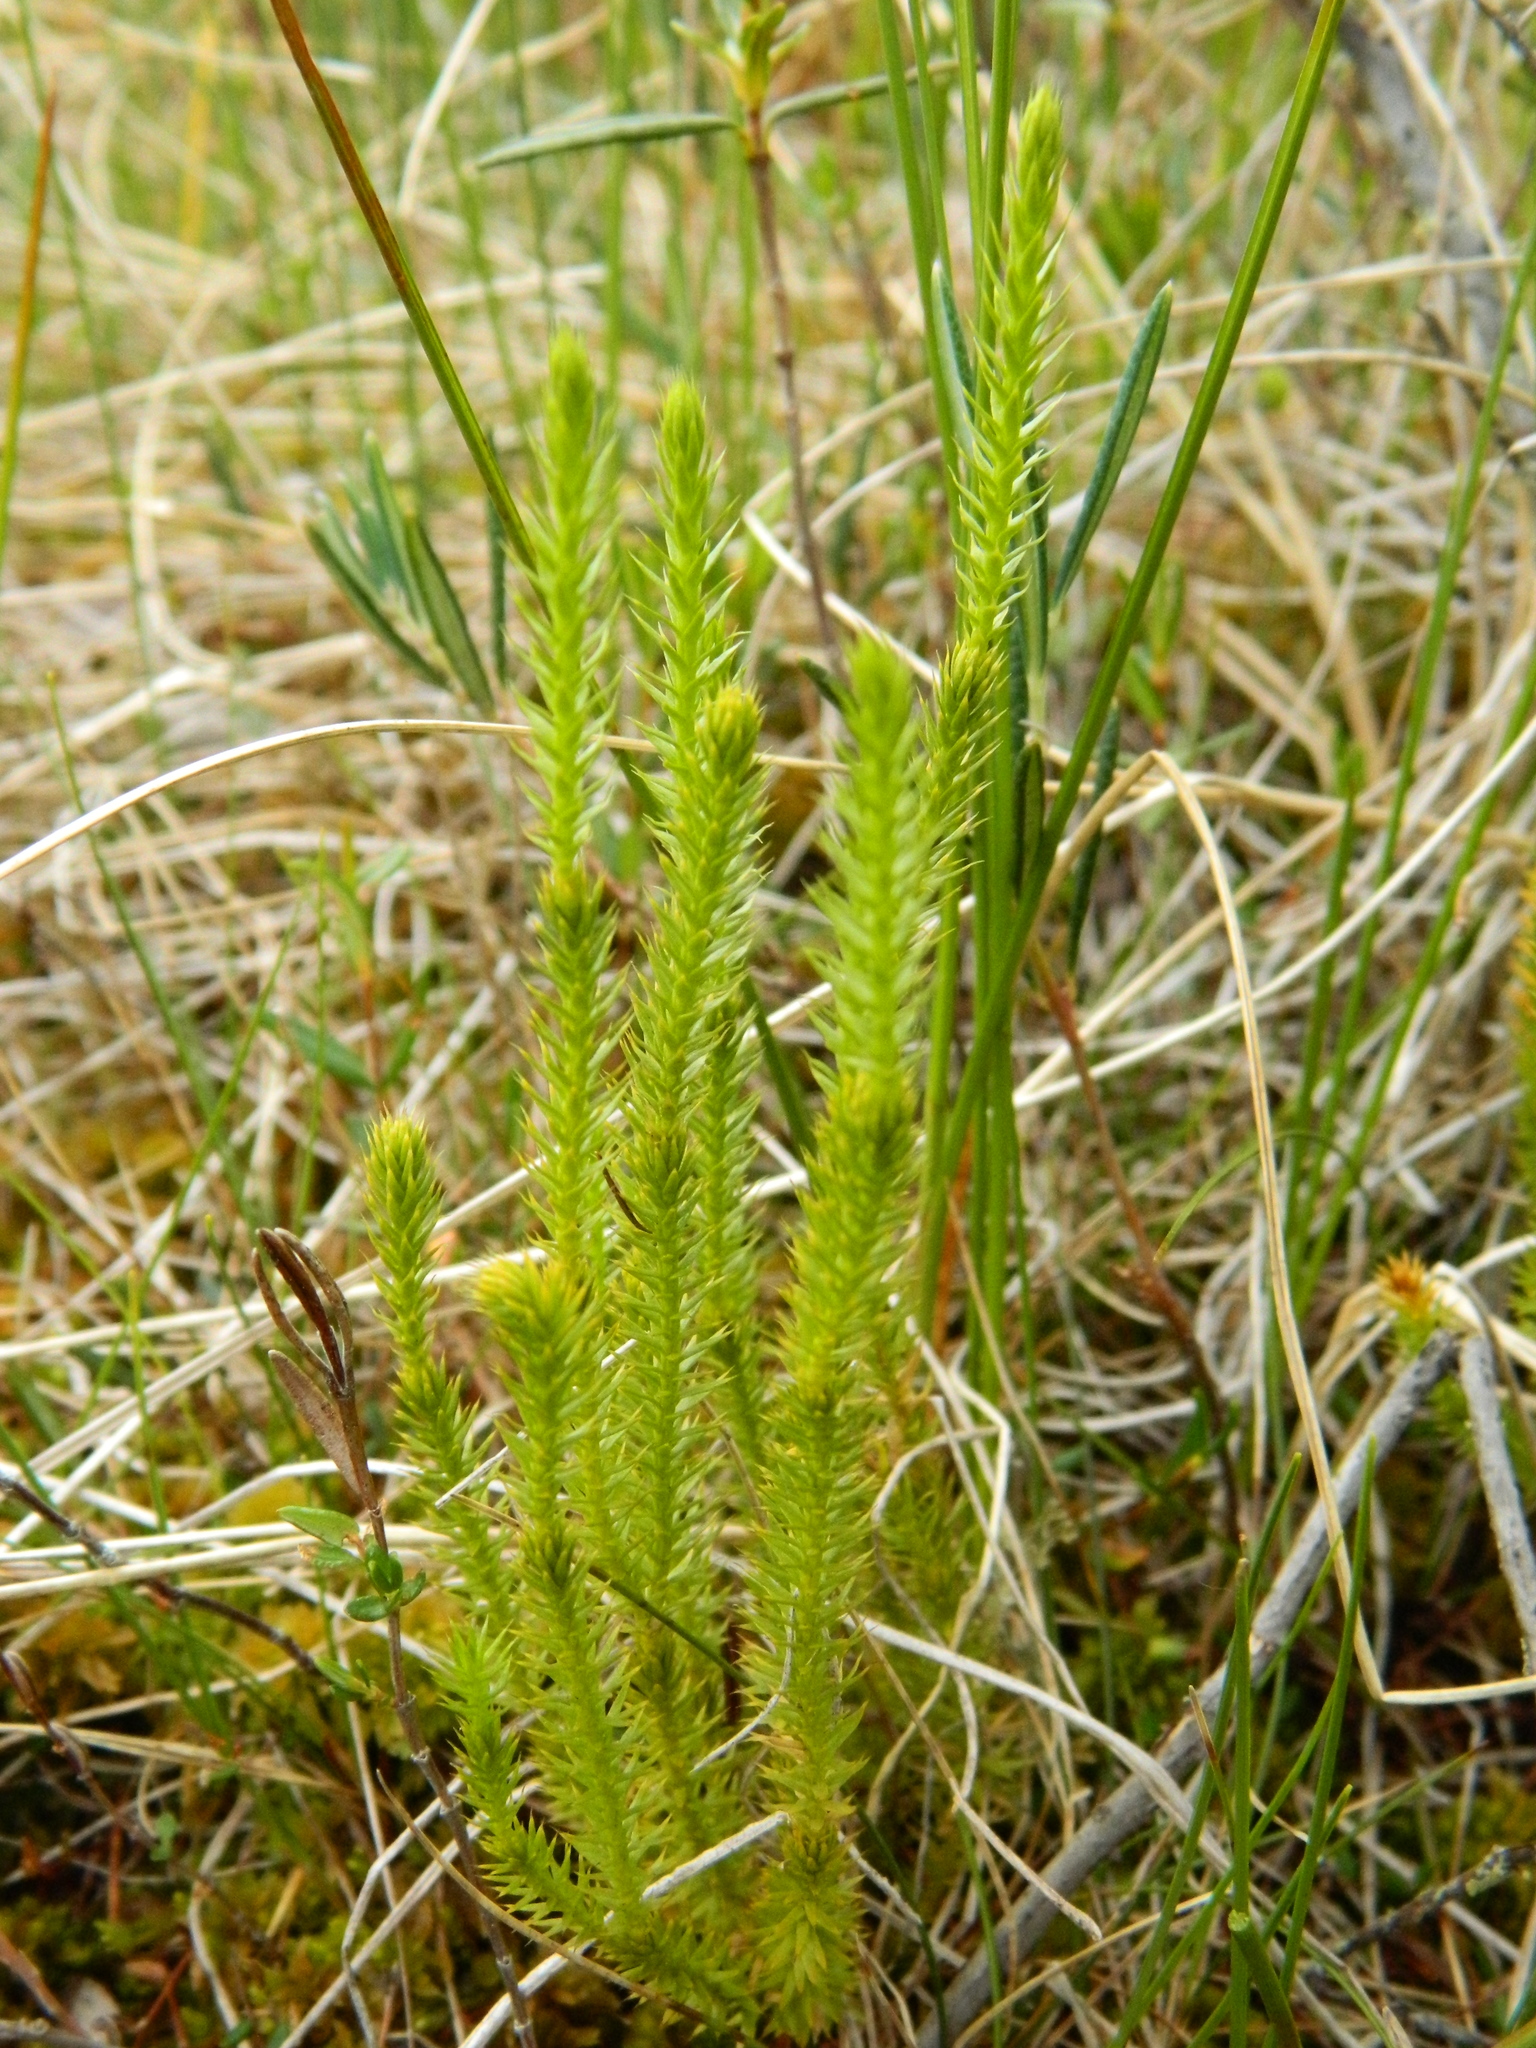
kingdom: Plantae
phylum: Tracheophyta
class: Lycopodiopsida
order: Lycopodiales
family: Lycopodiaceae
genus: Spinulum
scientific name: Spinulum annotinum
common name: Interrupted club-moss
